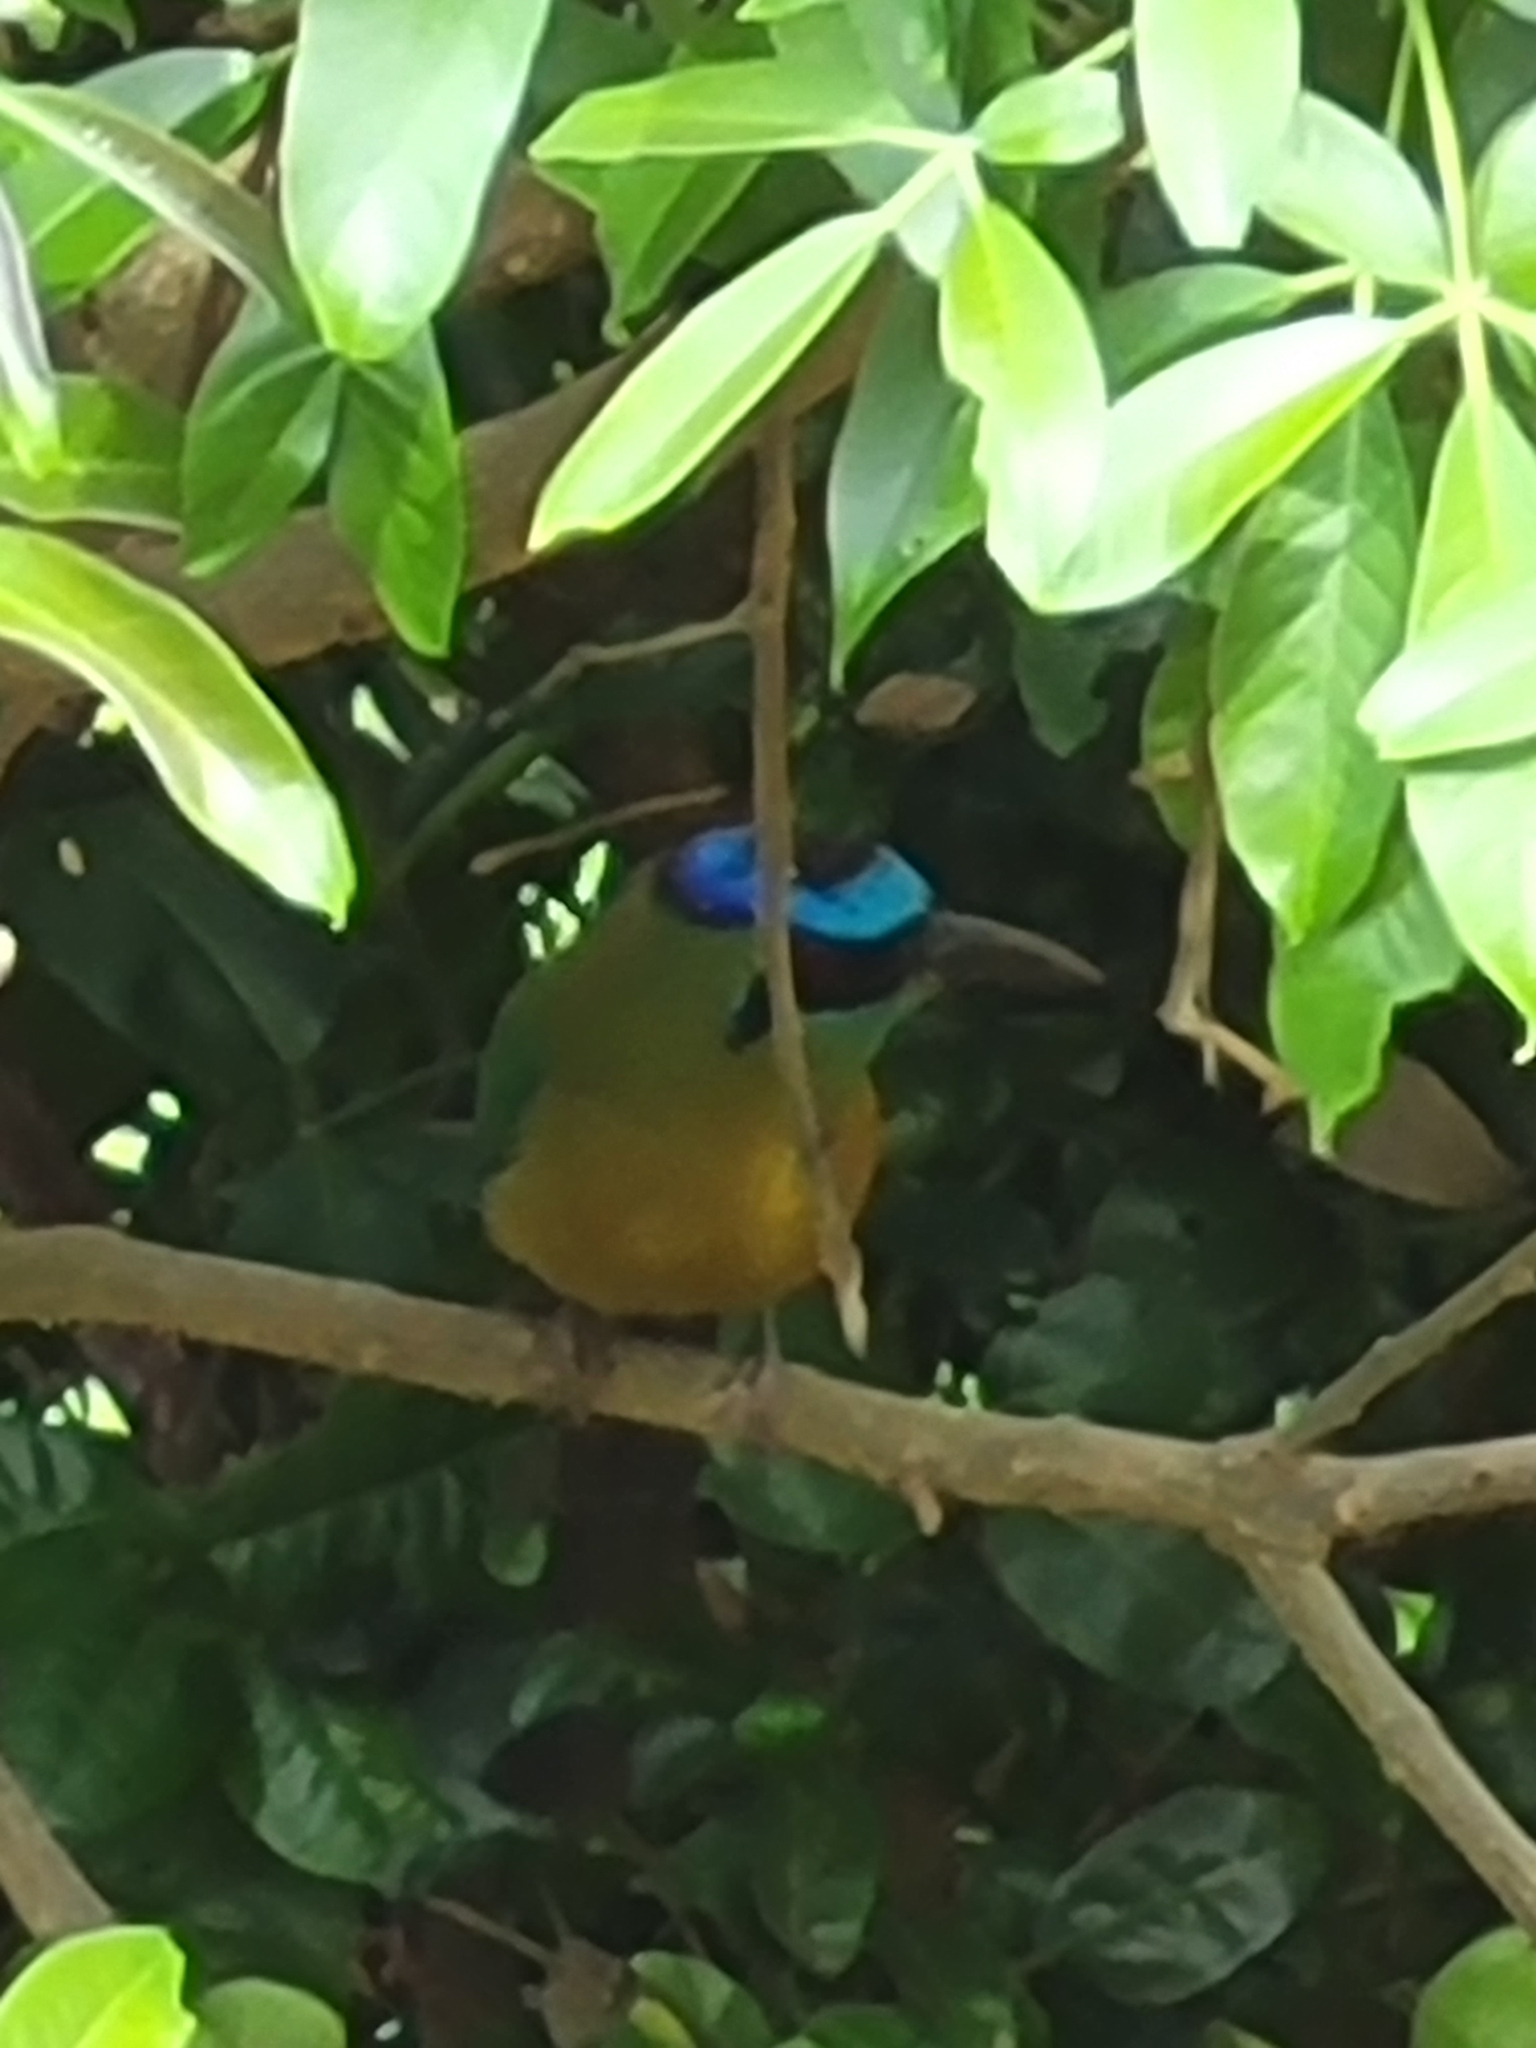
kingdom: Animalia
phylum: Chordata
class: Aves
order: Coraciiformes
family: Momotidae
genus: Momotus
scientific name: Momotus lessonii
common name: Lesson's motmot
